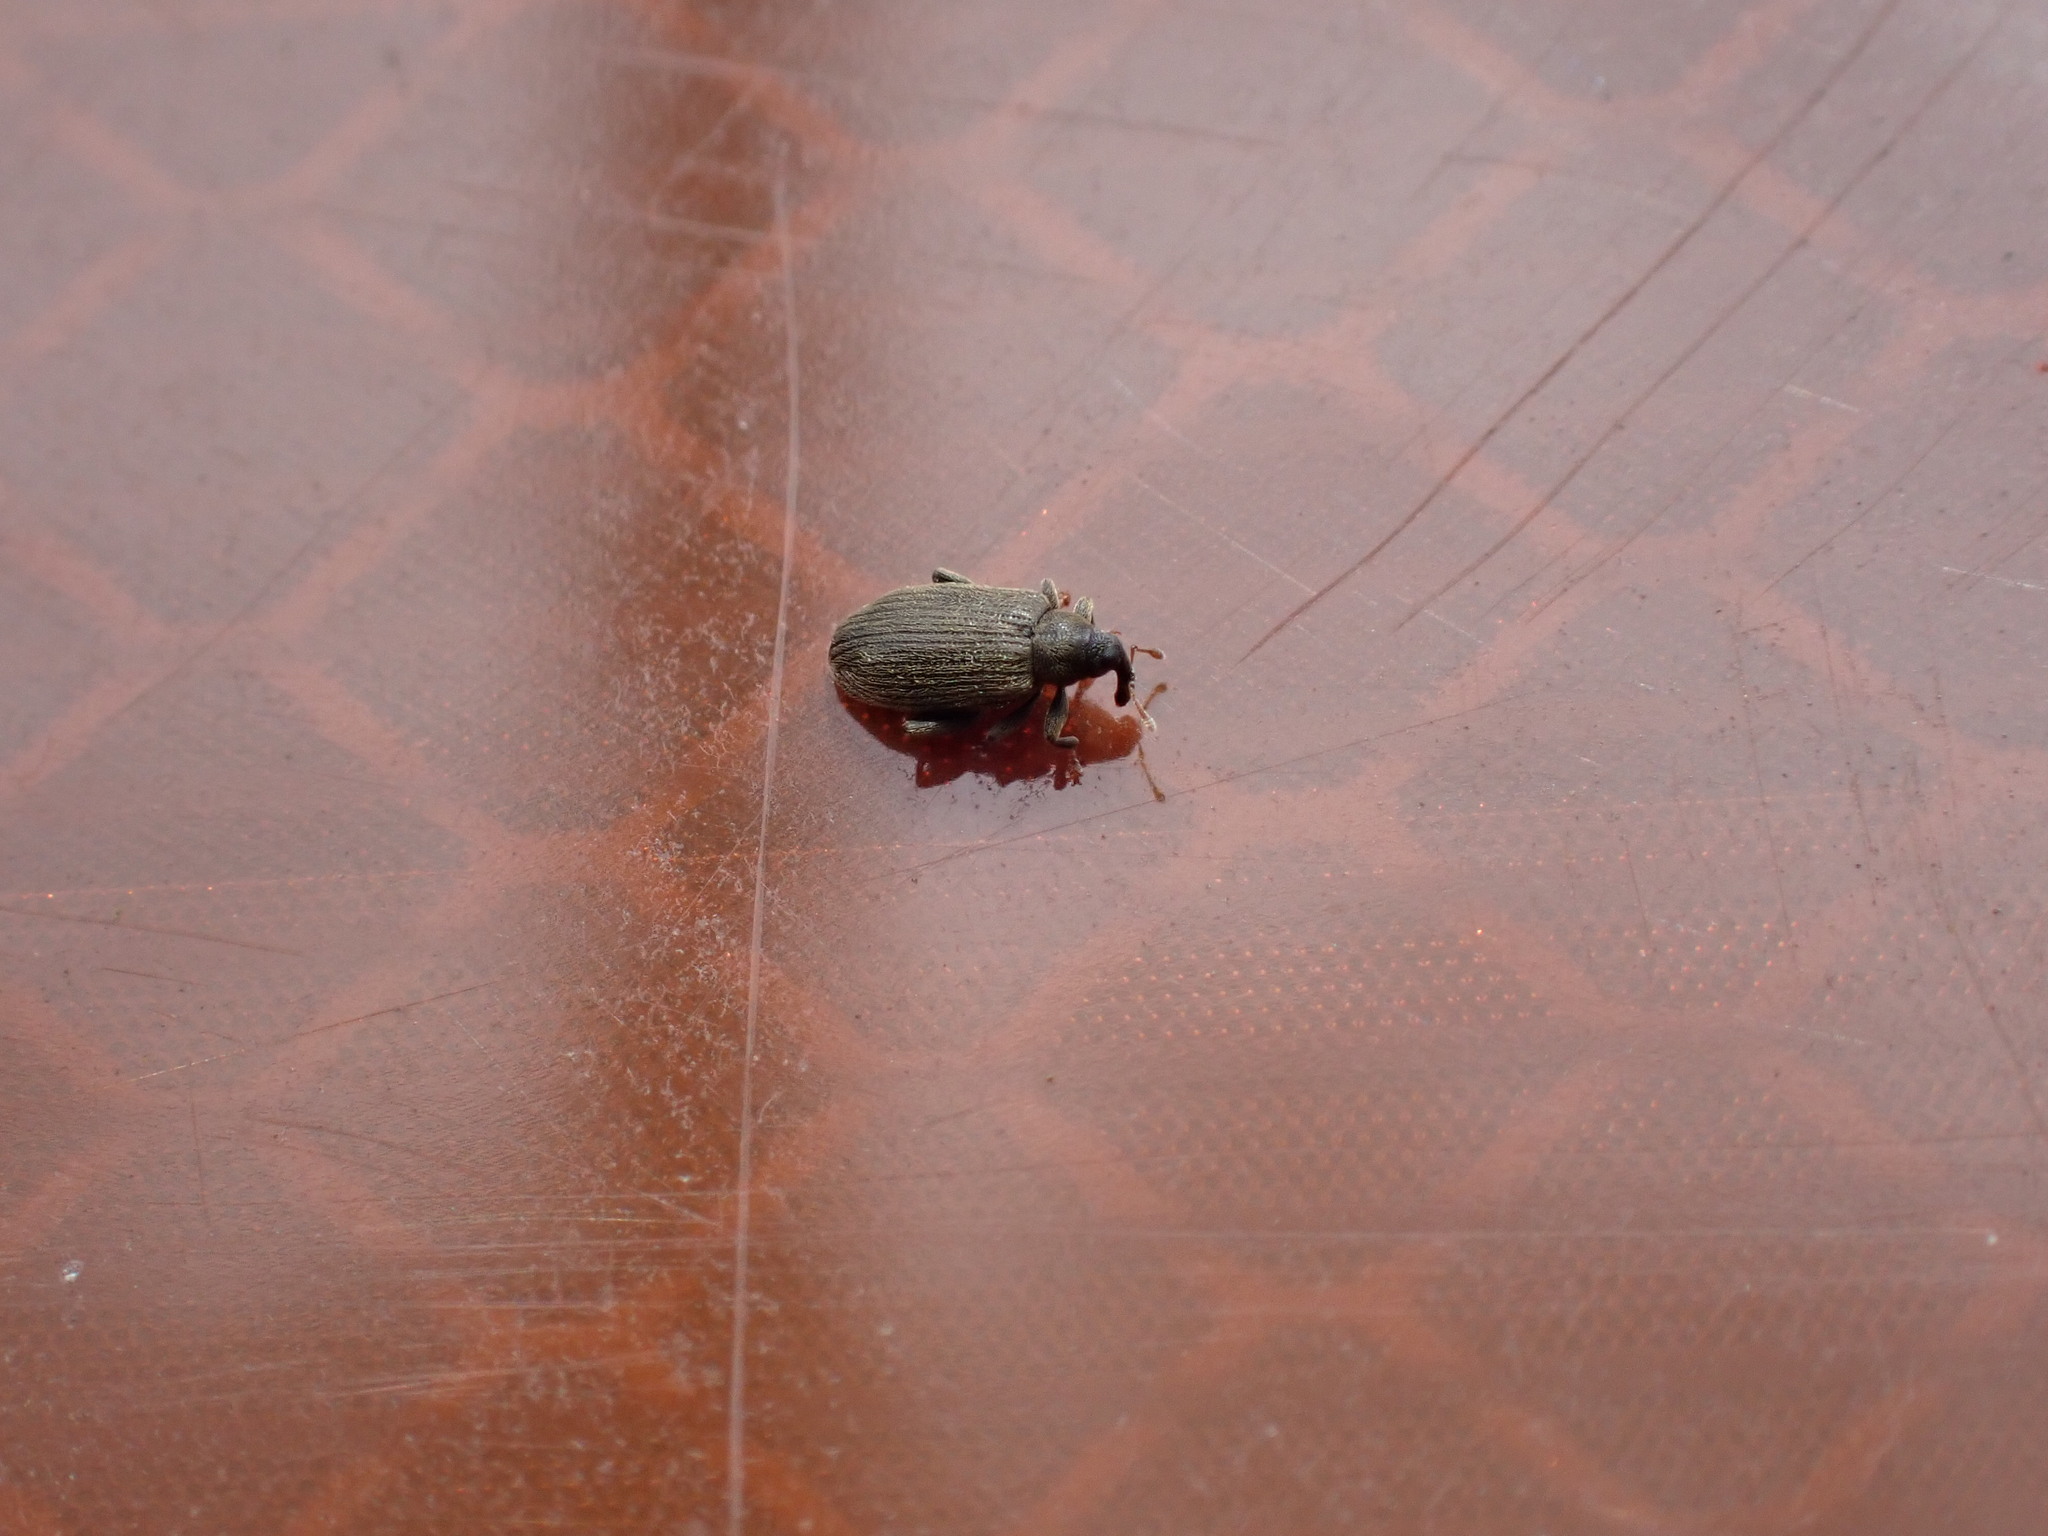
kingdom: Animalia
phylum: Arthropoda
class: Insecta
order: Coleoptera
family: Curculionidae
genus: Orchestes
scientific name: Orchestes fagi
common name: Beech leaf miner
